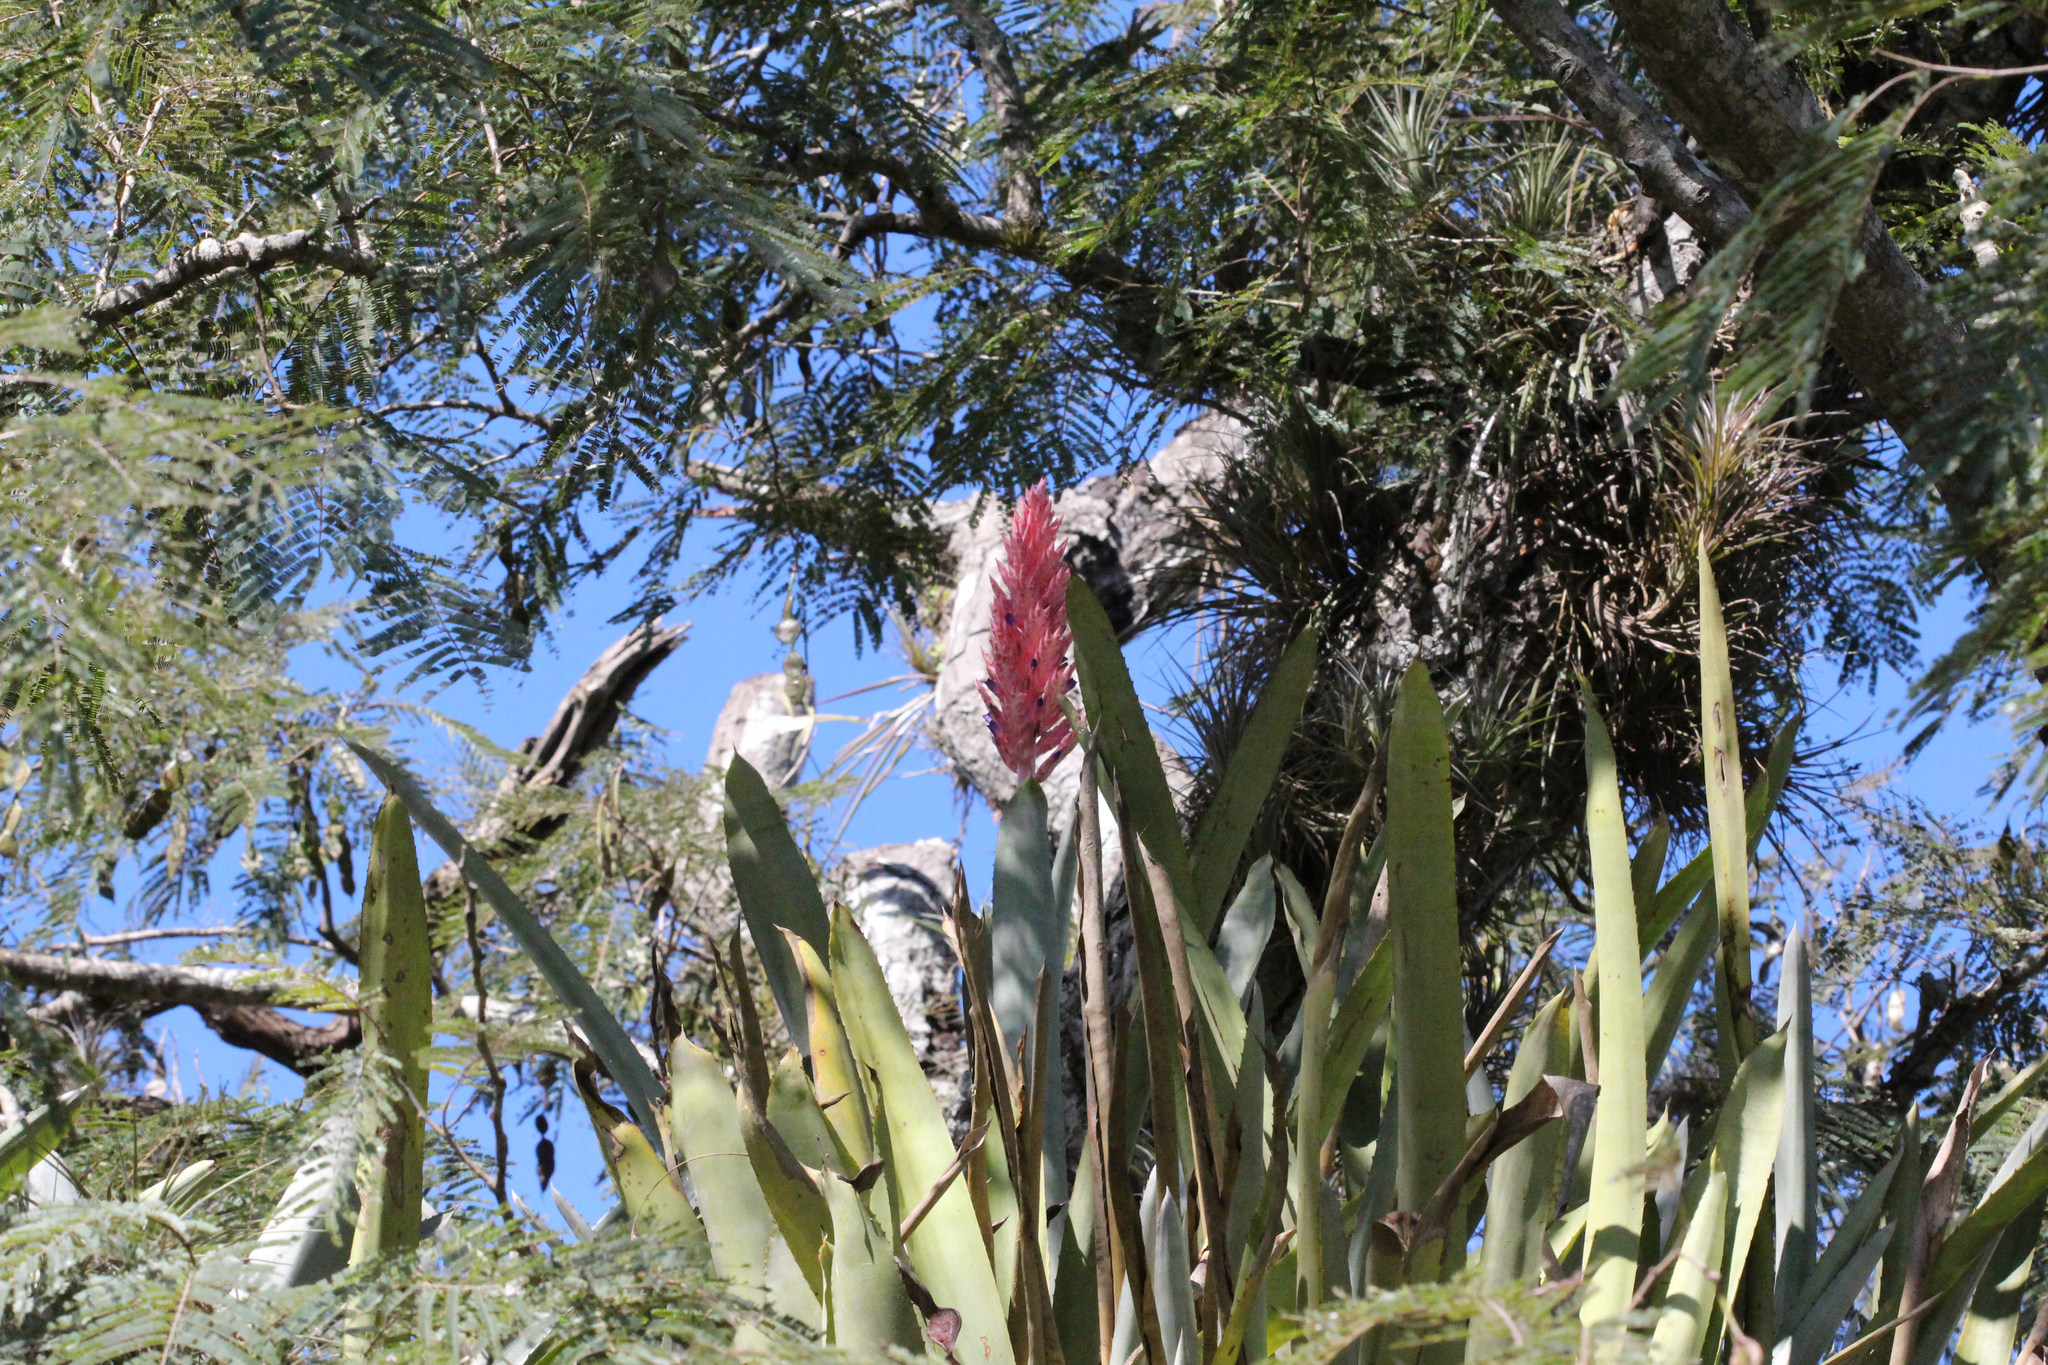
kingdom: Plantae
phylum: Tracheophyta
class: Liliopsida
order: Poales
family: Bromeliaceae
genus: Aechmea
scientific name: Aechmea distichantha
